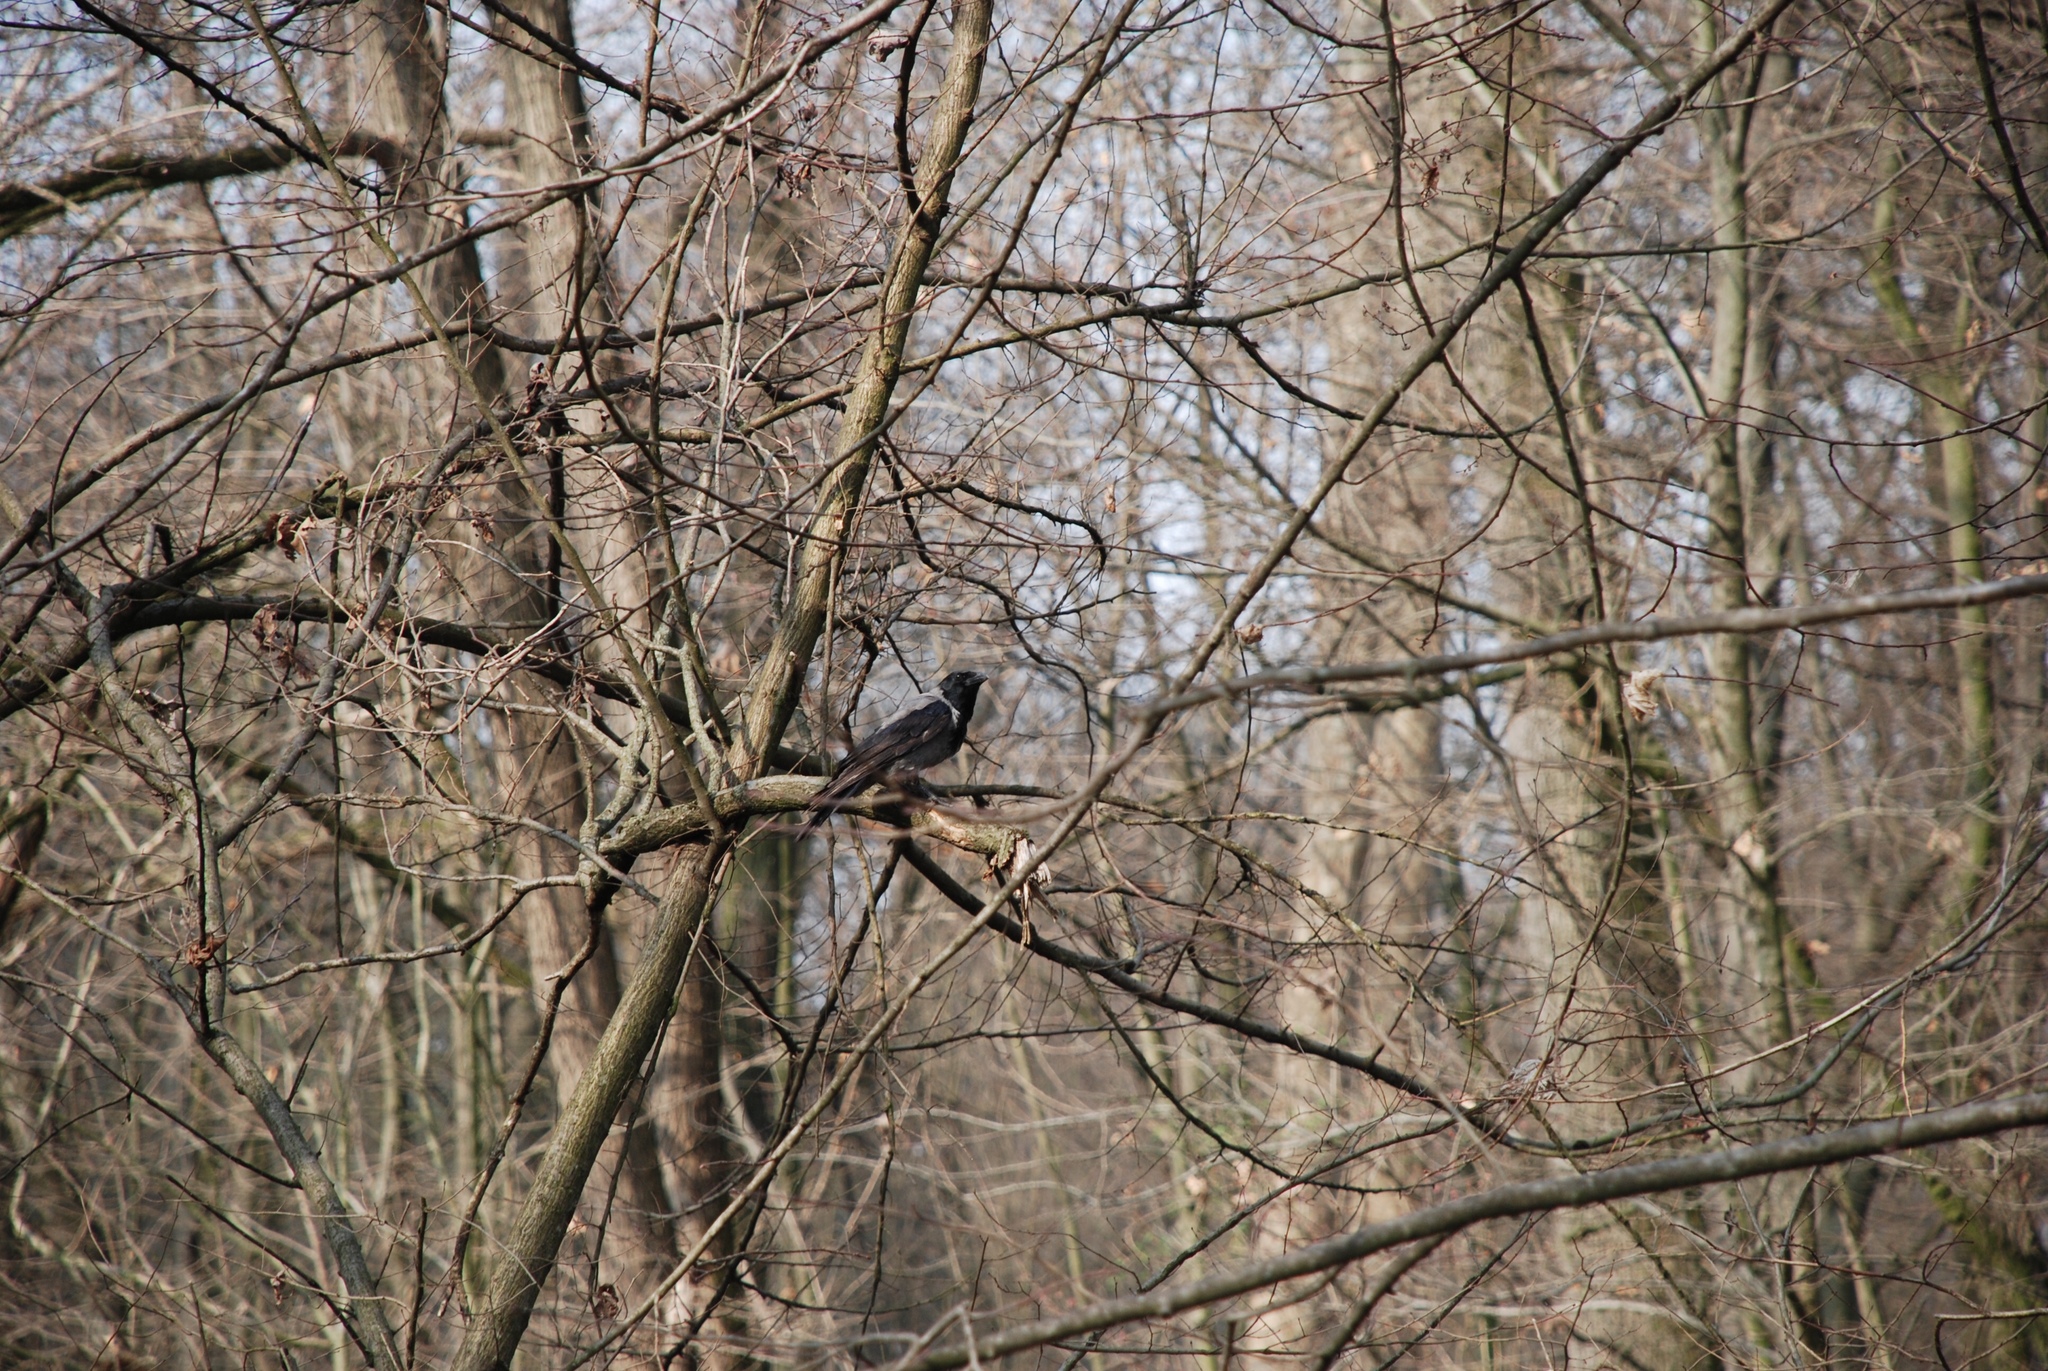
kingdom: Animalia
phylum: Chordata
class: Aves
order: Passeriformes
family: Corvidae
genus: Corvus
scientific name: Corvus cornix
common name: Hooded crow
